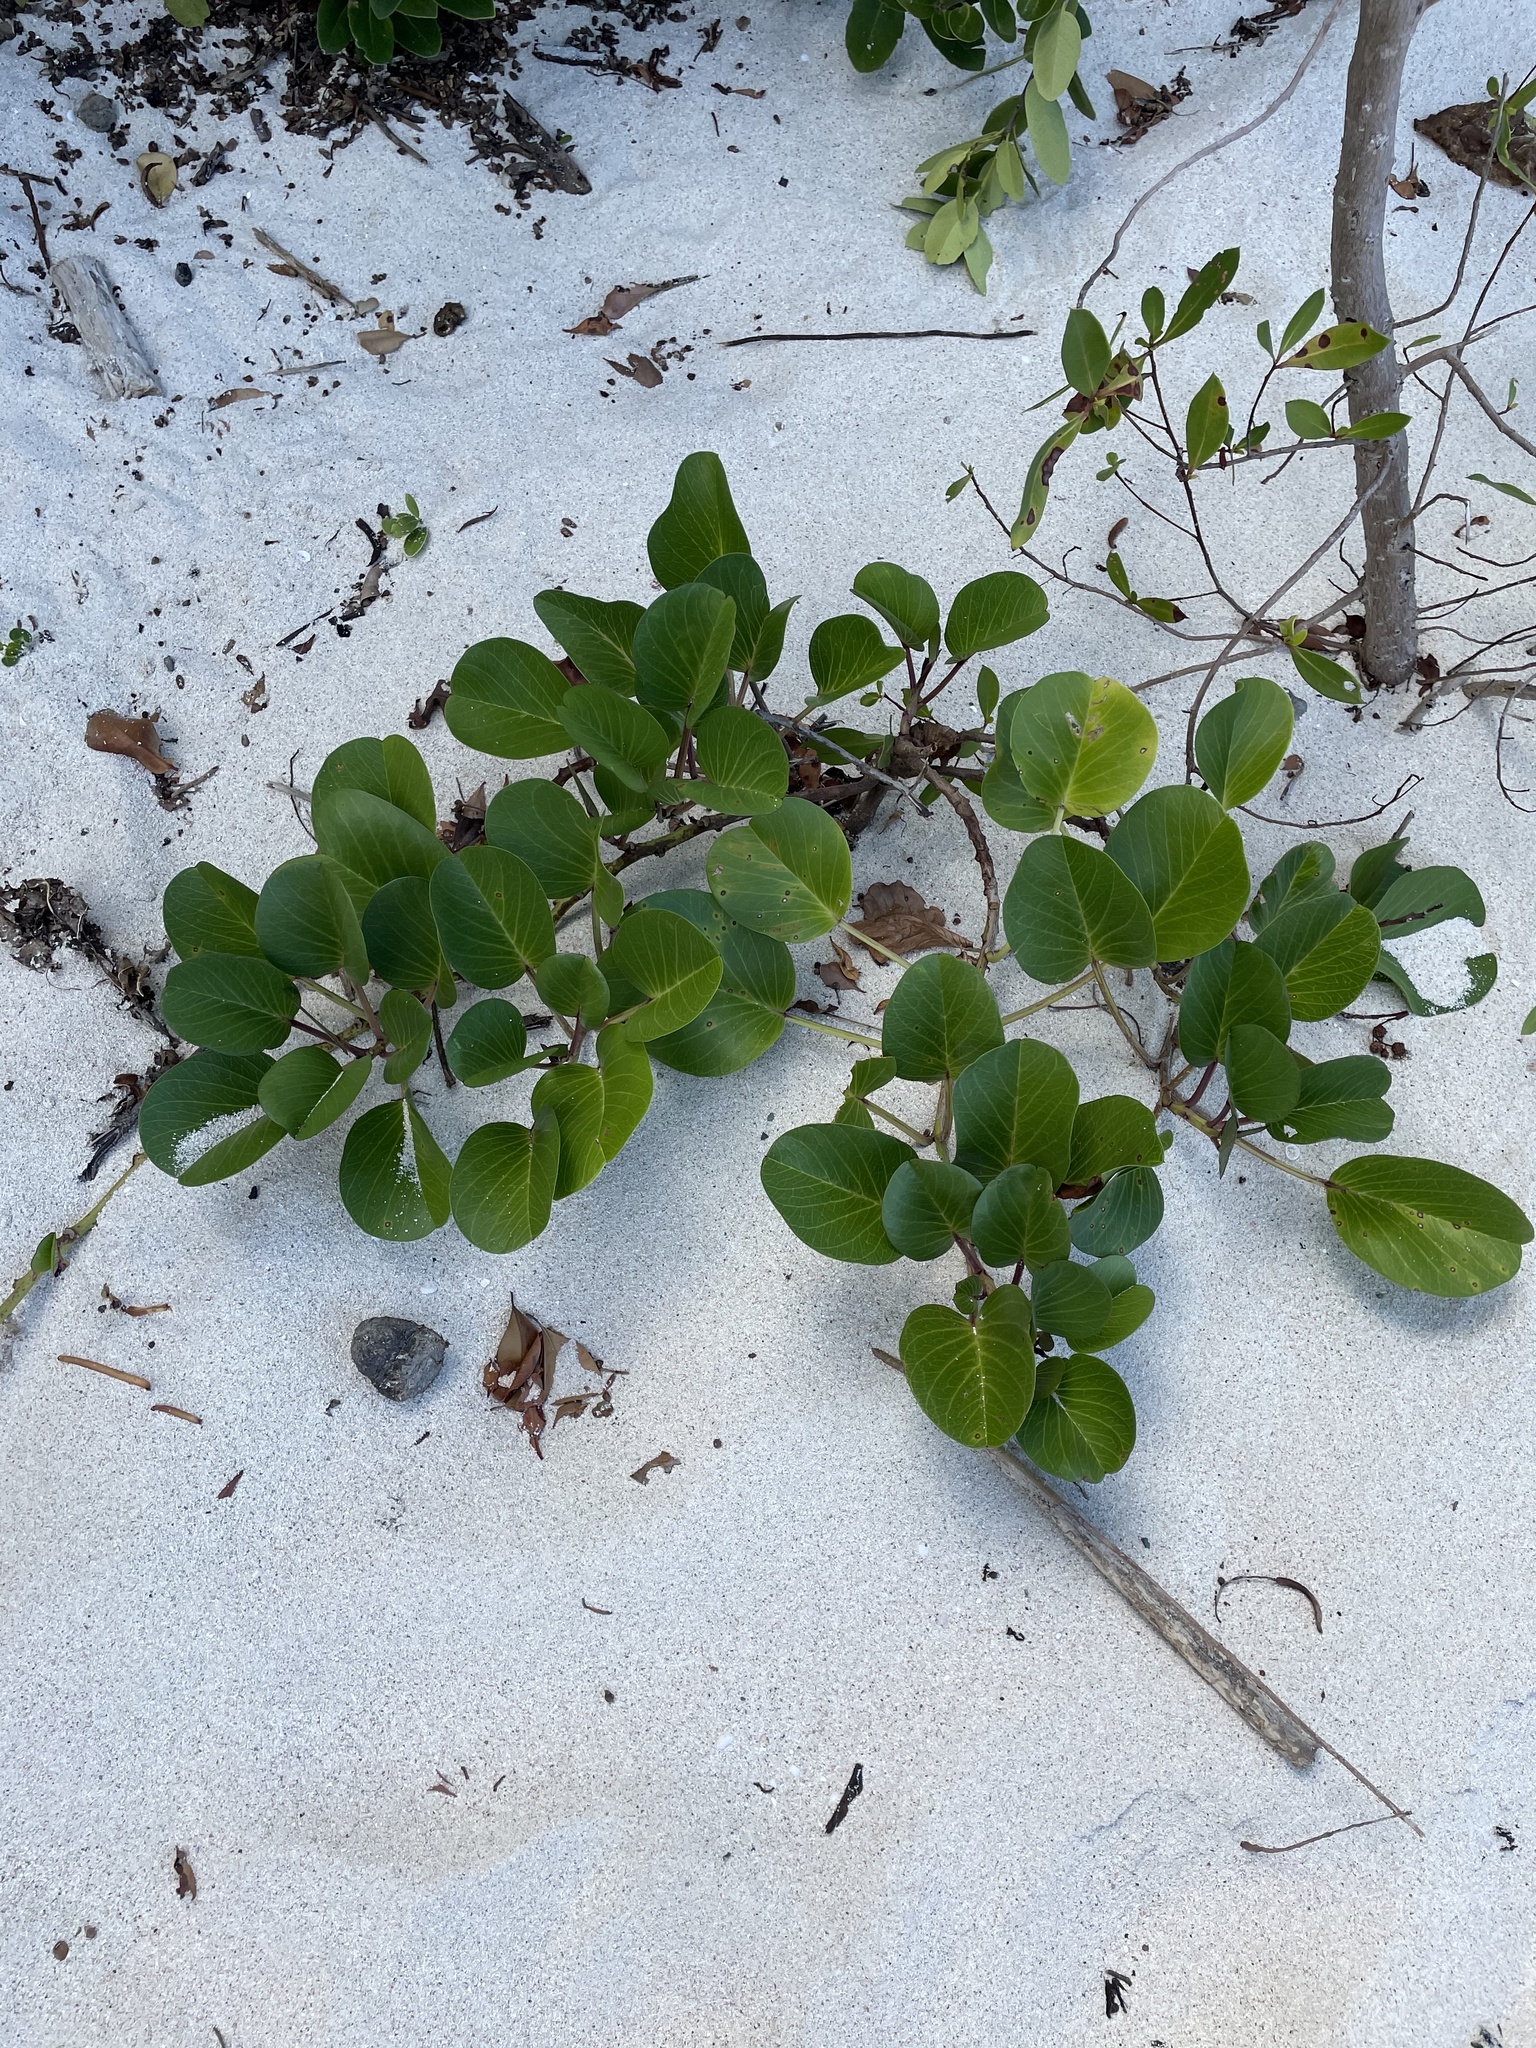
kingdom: Plantae
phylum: Tracheophyta
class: Magnoliopsida
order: Solanales
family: Convolvulaceae
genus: Ipomoea
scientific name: Ipomoea pes-caprae
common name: Beach morning glory
